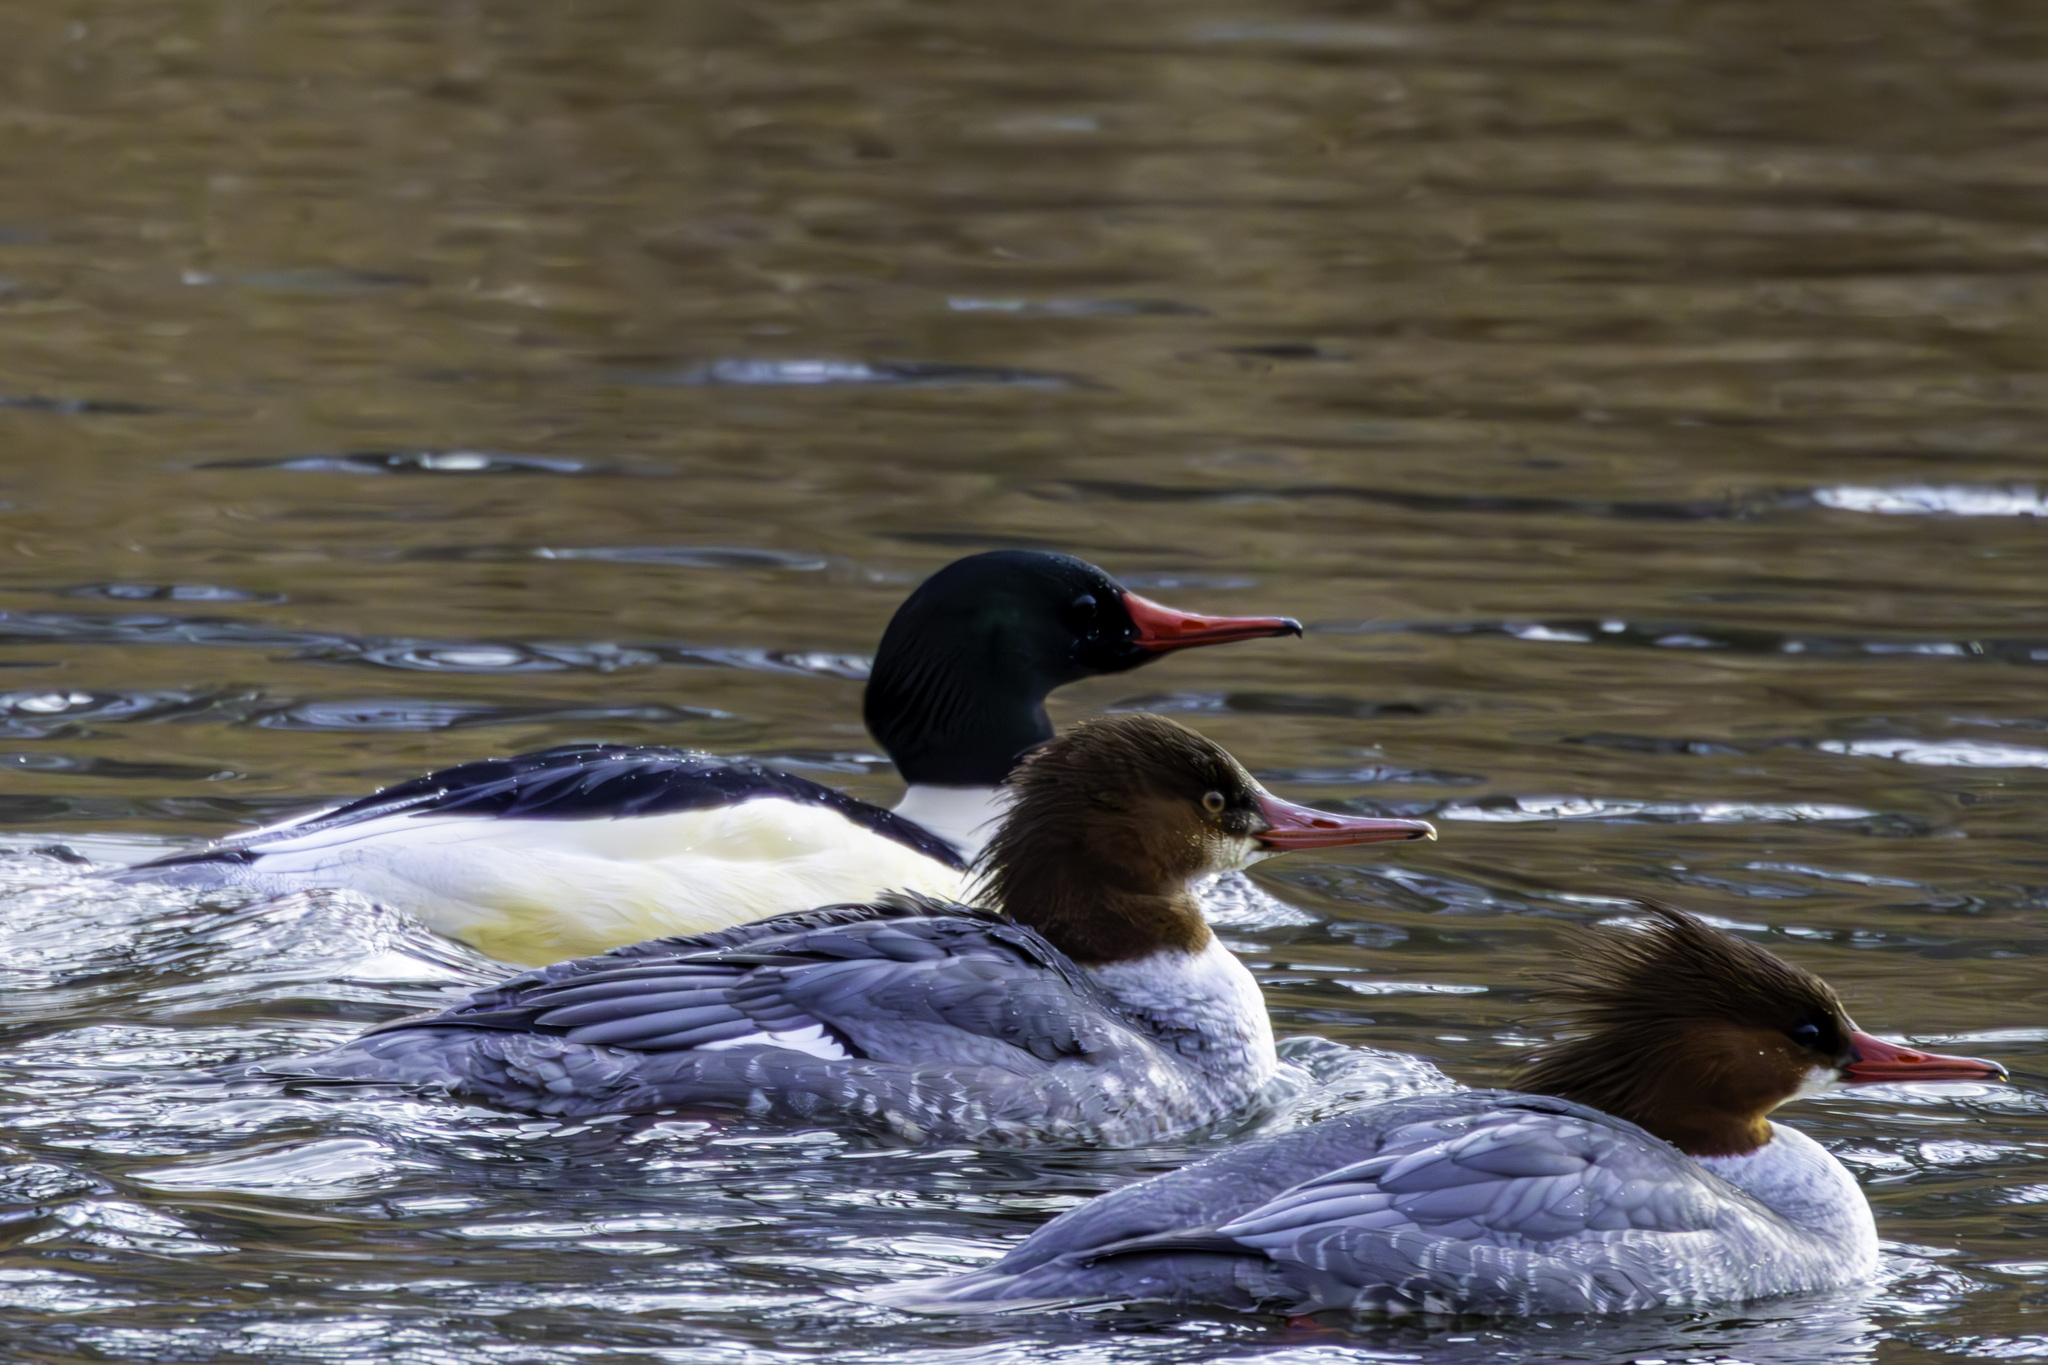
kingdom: Animalia
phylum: Chordata
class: Aves
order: Anseriformes
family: Anatidae
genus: Mergus
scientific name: Mergus merganser
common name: Common merganser
